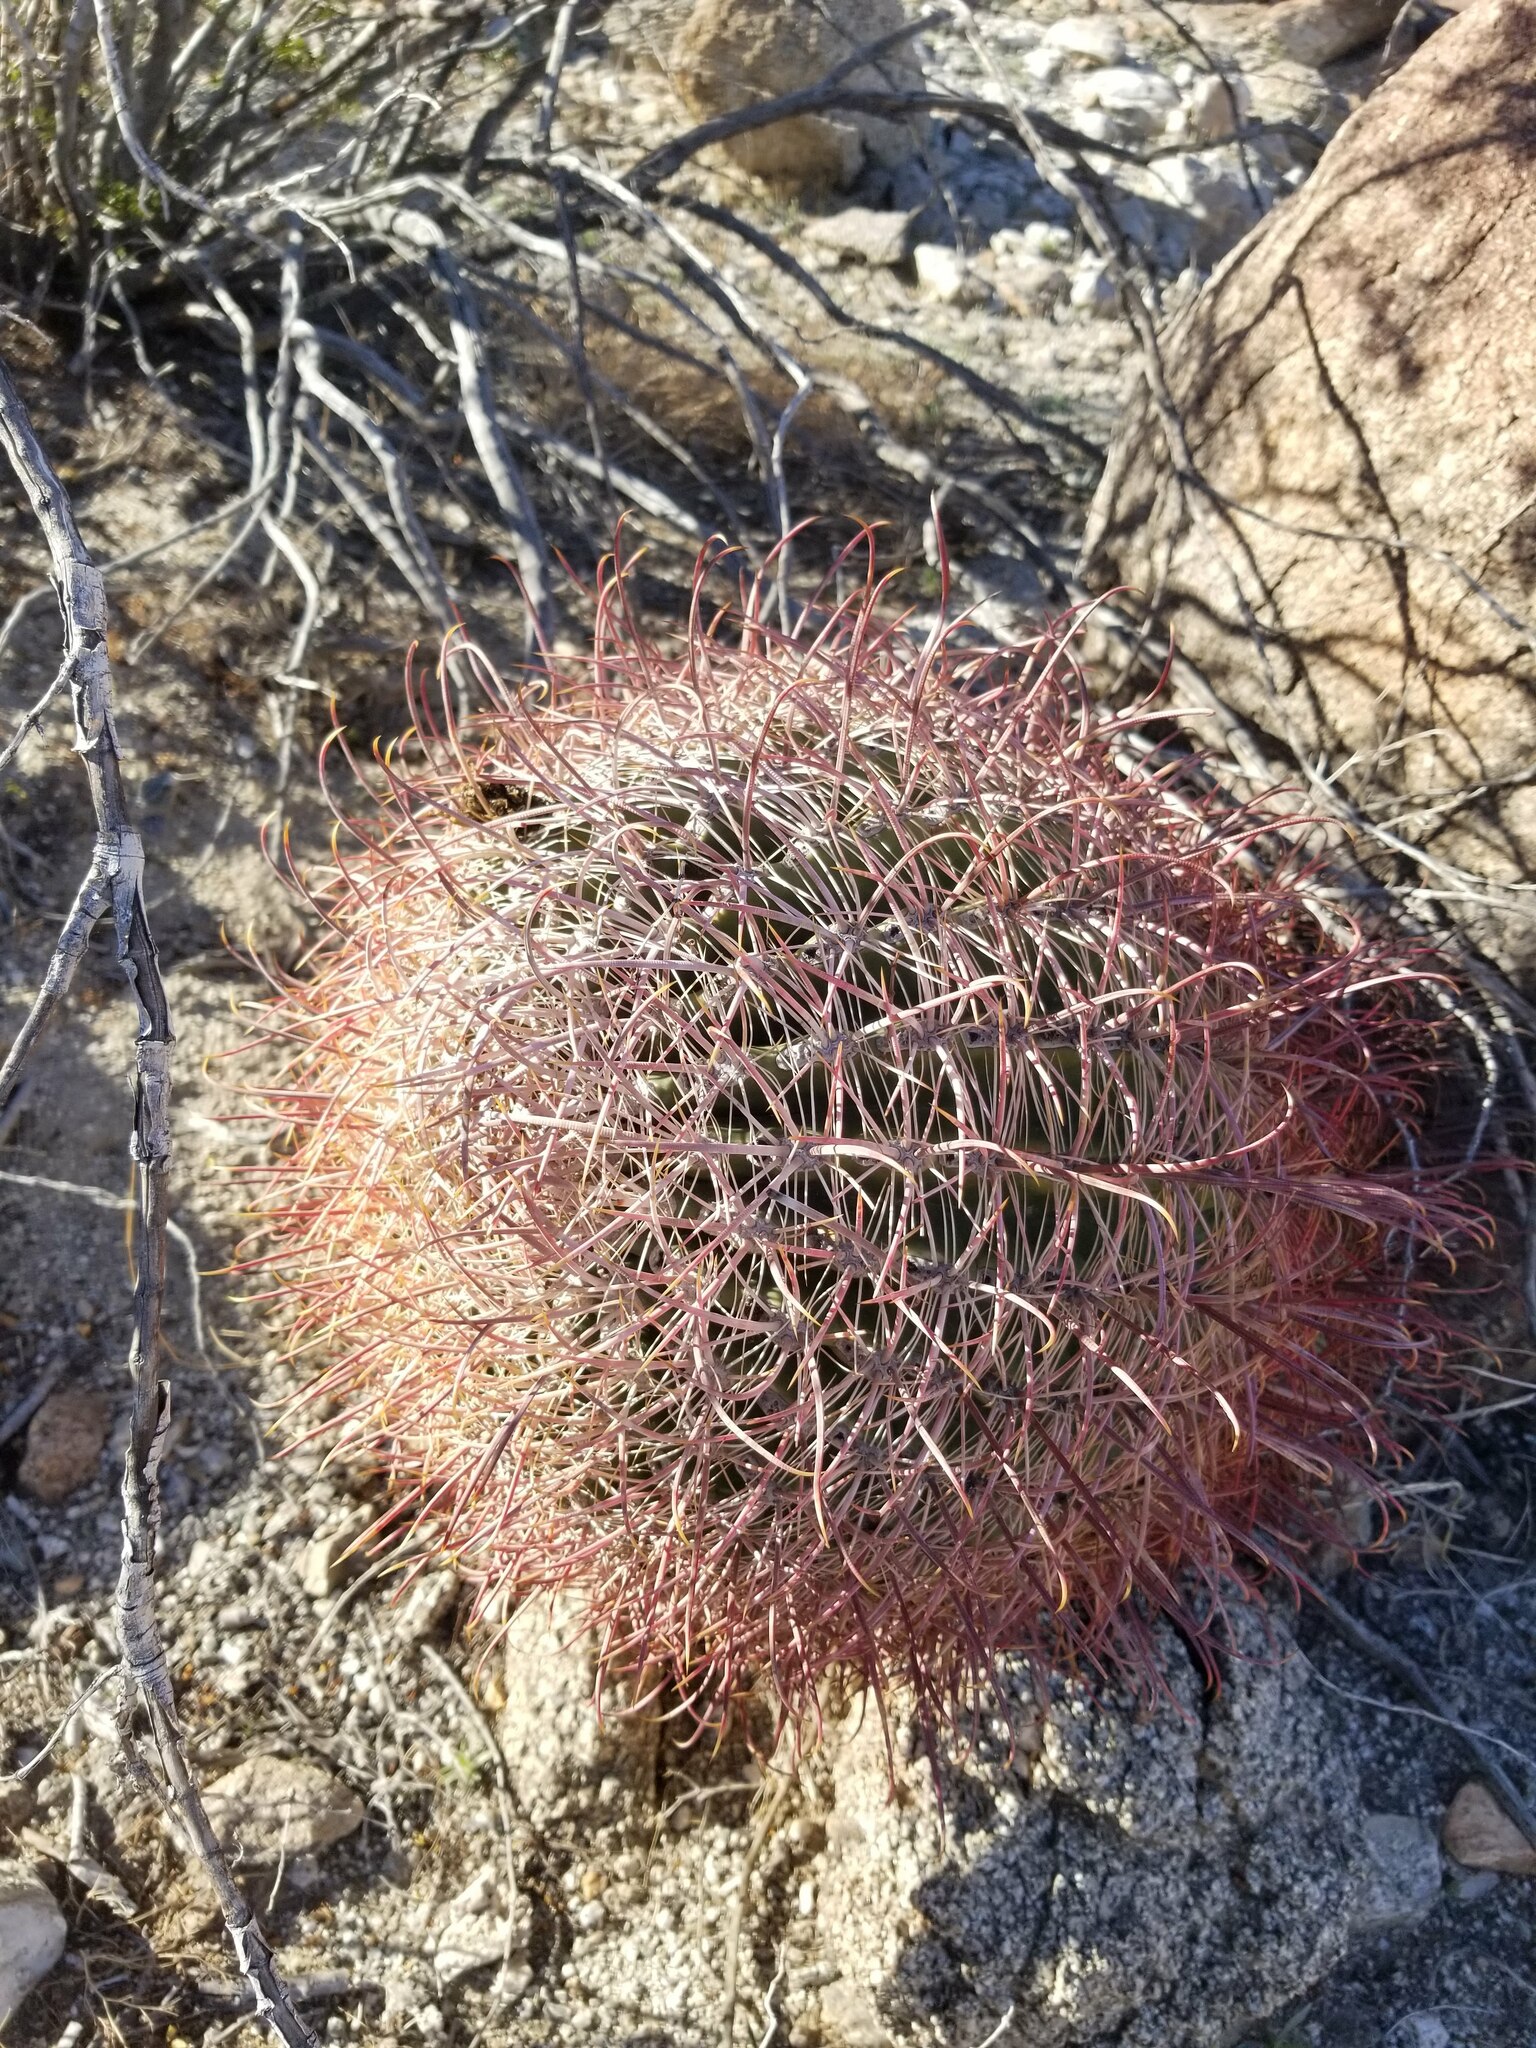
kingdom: Plantae
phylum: Tracheophyta
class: Magnoliopsida
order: Caryophyllales
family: Cactaceae
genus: Ferocactus
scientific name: Ferocactus cylindraceus
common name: California barrel cactus
